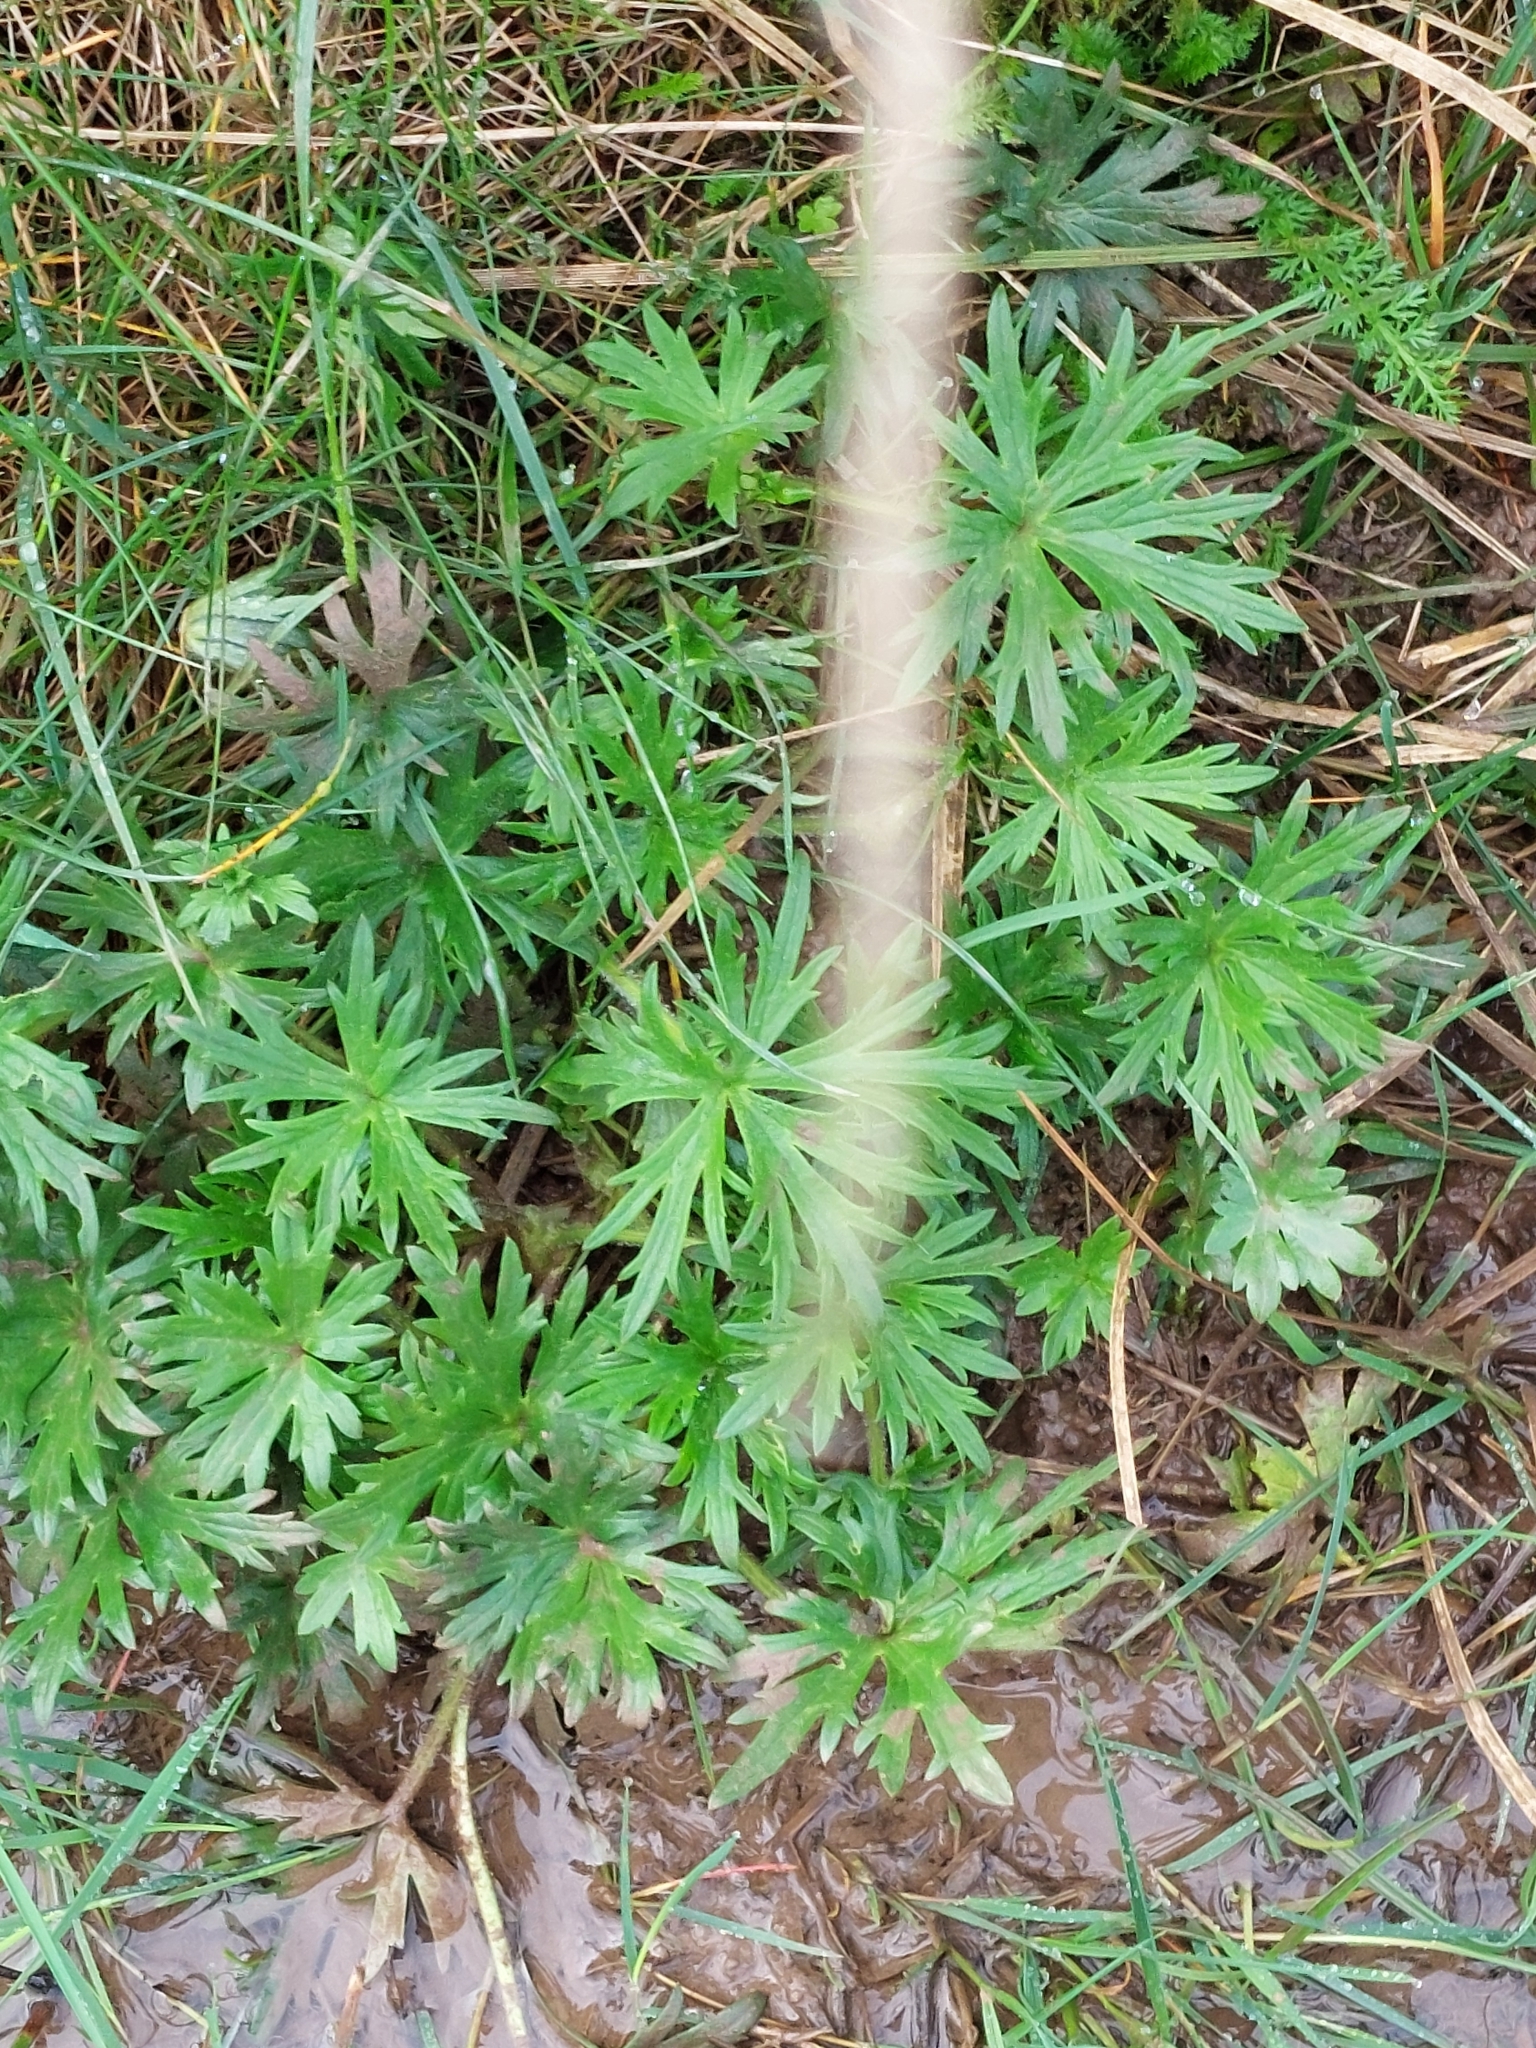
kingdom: Plantae
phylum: Tracheophyta
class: Magnoliopsida
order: Ranunculales
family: Ranunculaceae
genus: Ranunculus
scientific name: Ranunculus acris
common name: Meadow buttercup
